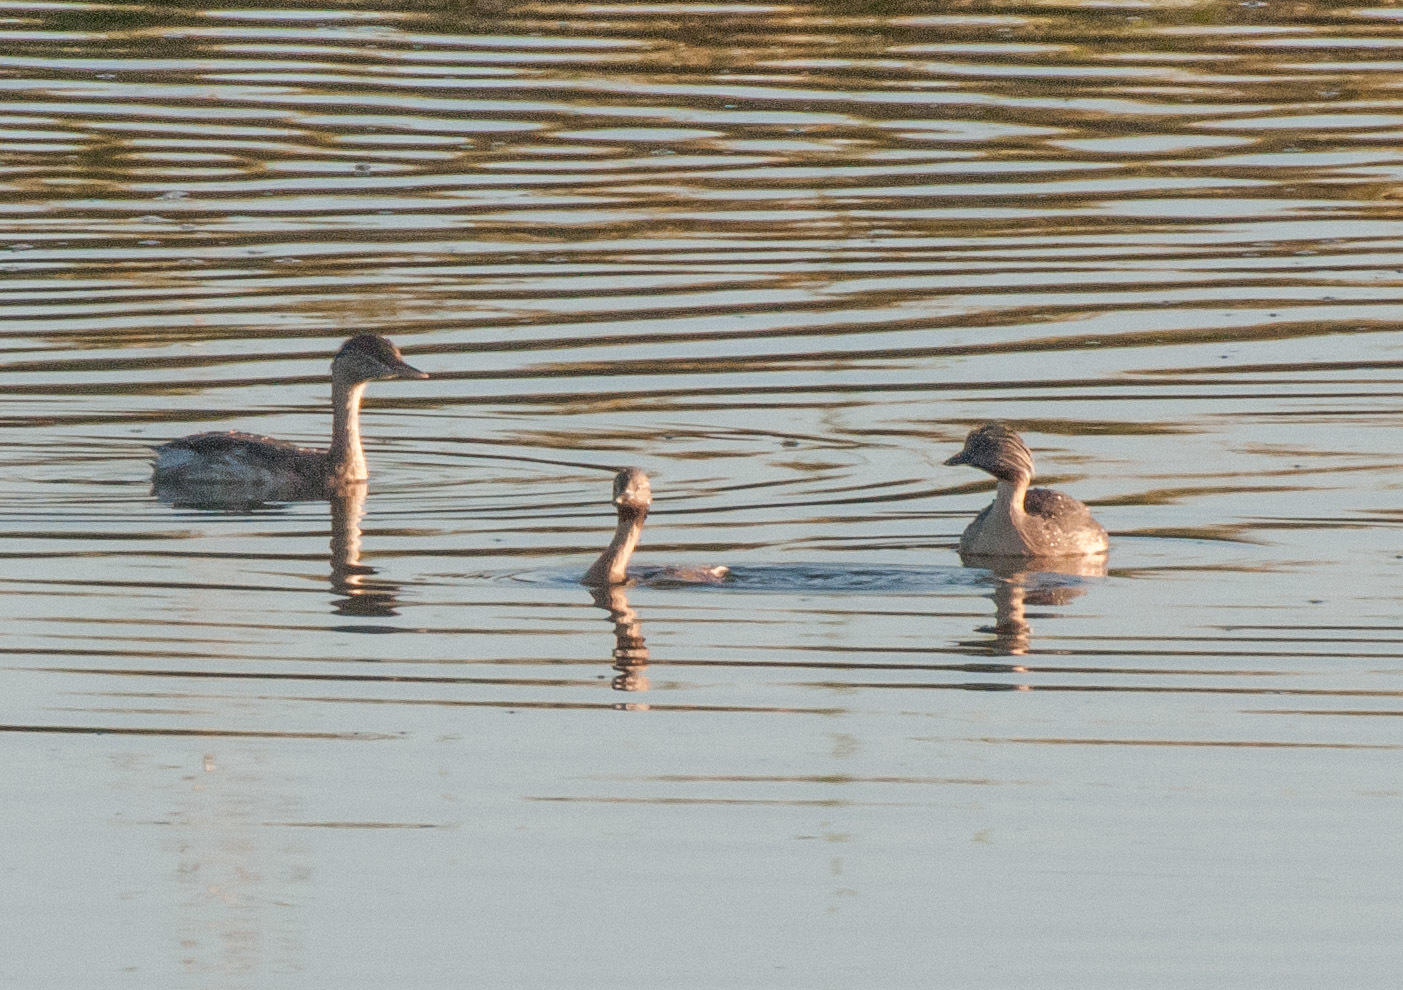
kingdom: Animalia
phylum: Chordata
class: Aves
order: Podicipediformes
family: Podicipedidae
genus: Poliocephalus
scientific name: Poliocephalus poliocephalus
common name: Hoary-headed grebe
